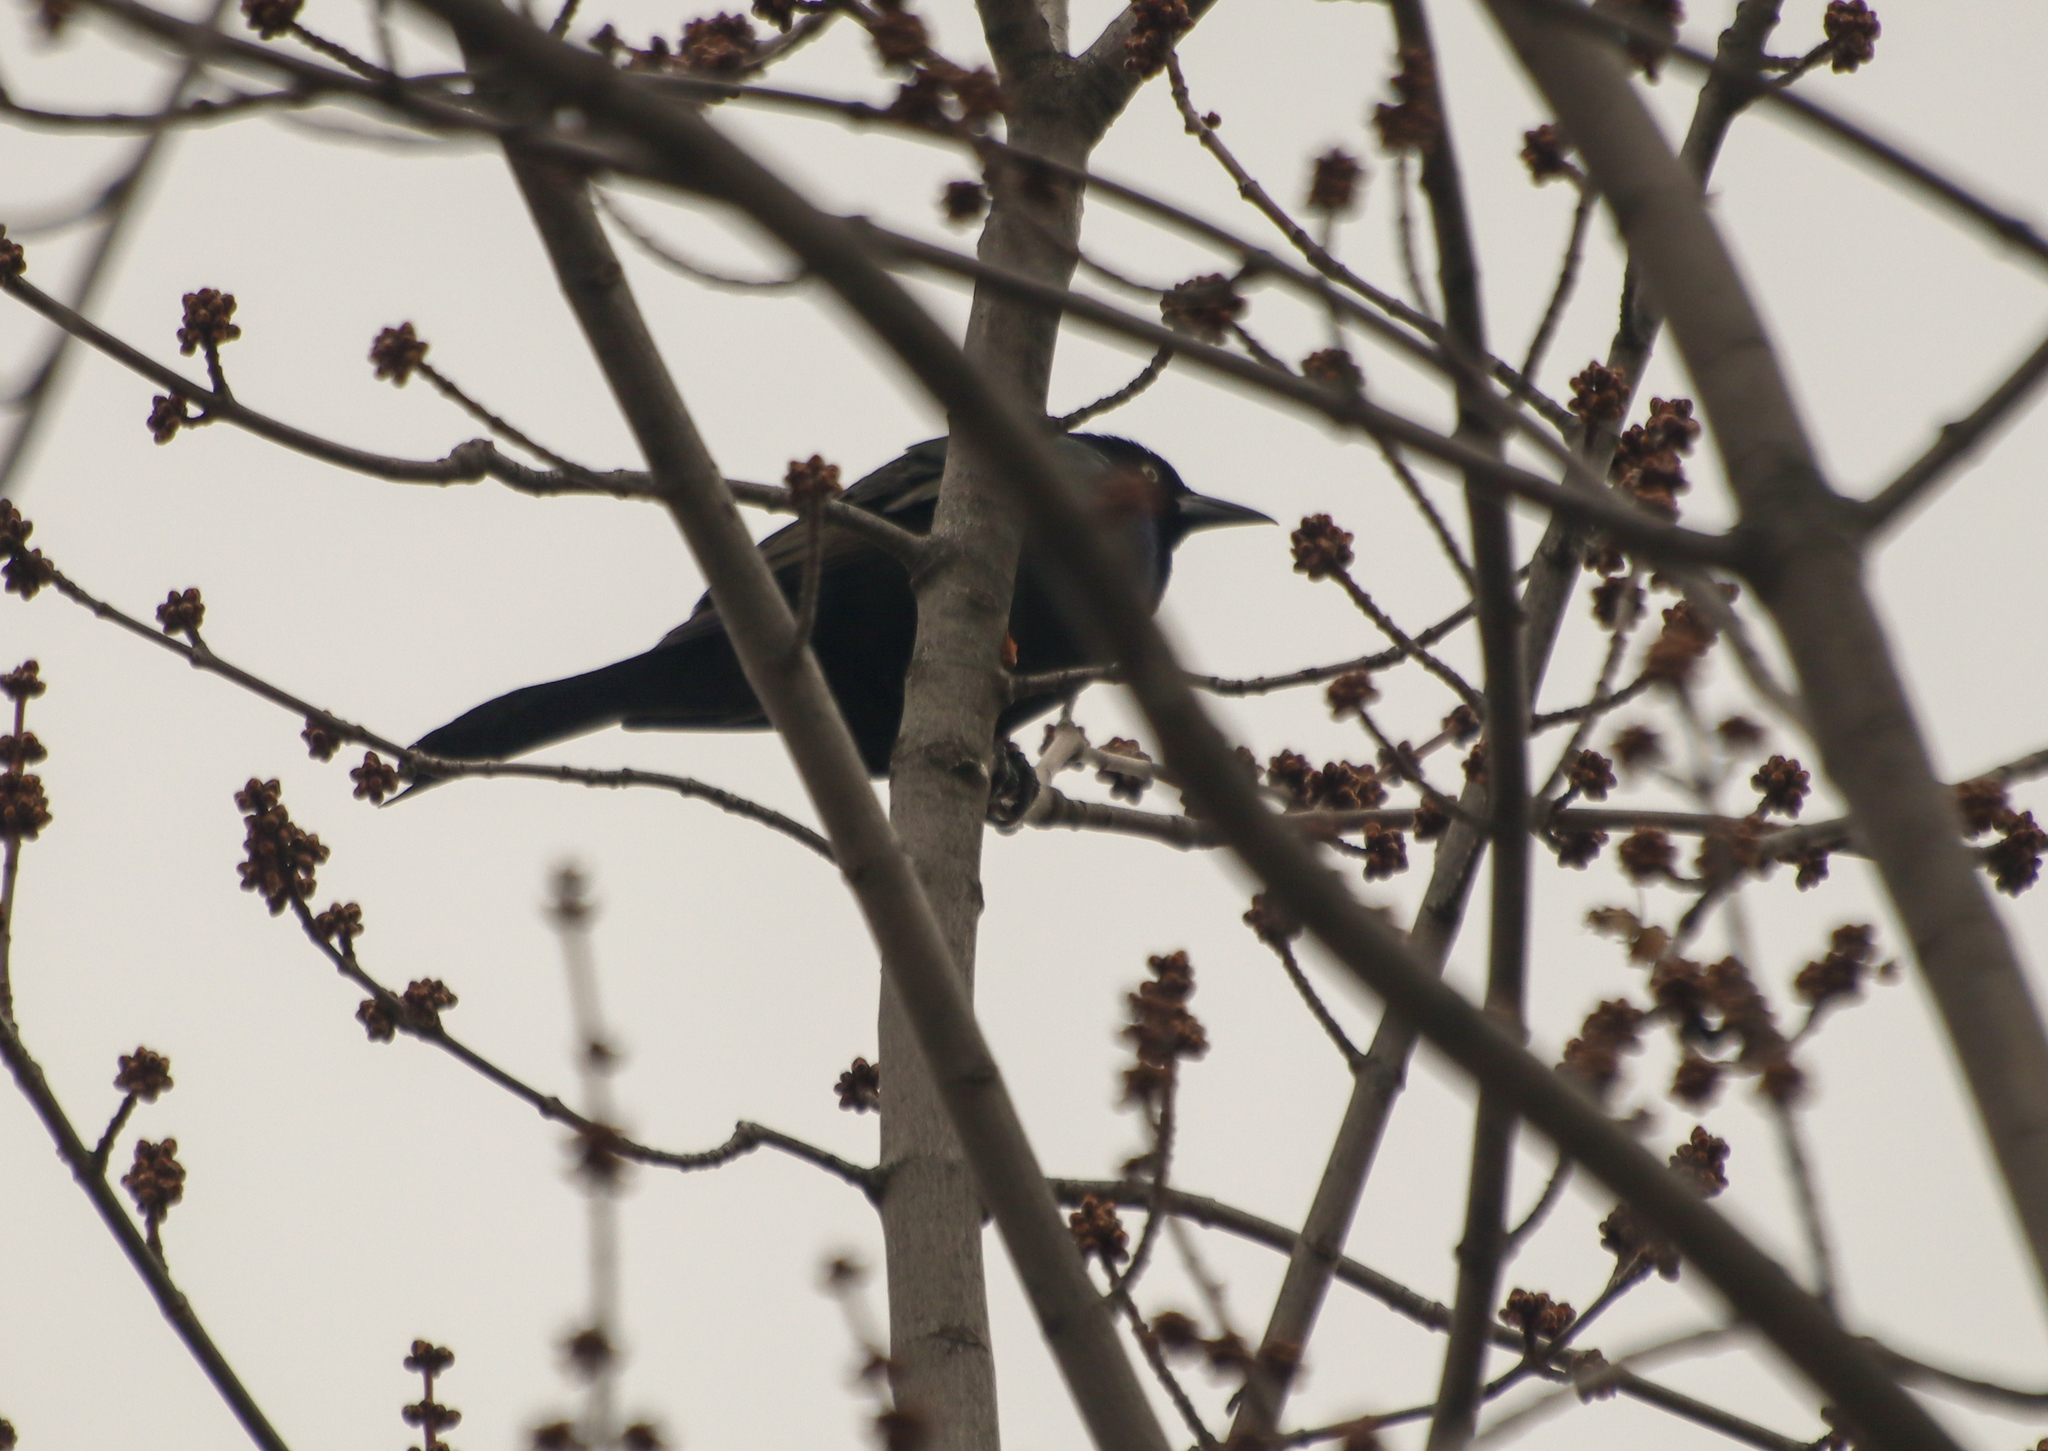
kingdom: Animalia
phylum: Chordata
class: Aves
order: Passeriformes
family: Icteridae
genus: Quiscalus
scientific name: Quiscalus quiscula
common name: Common grackle
